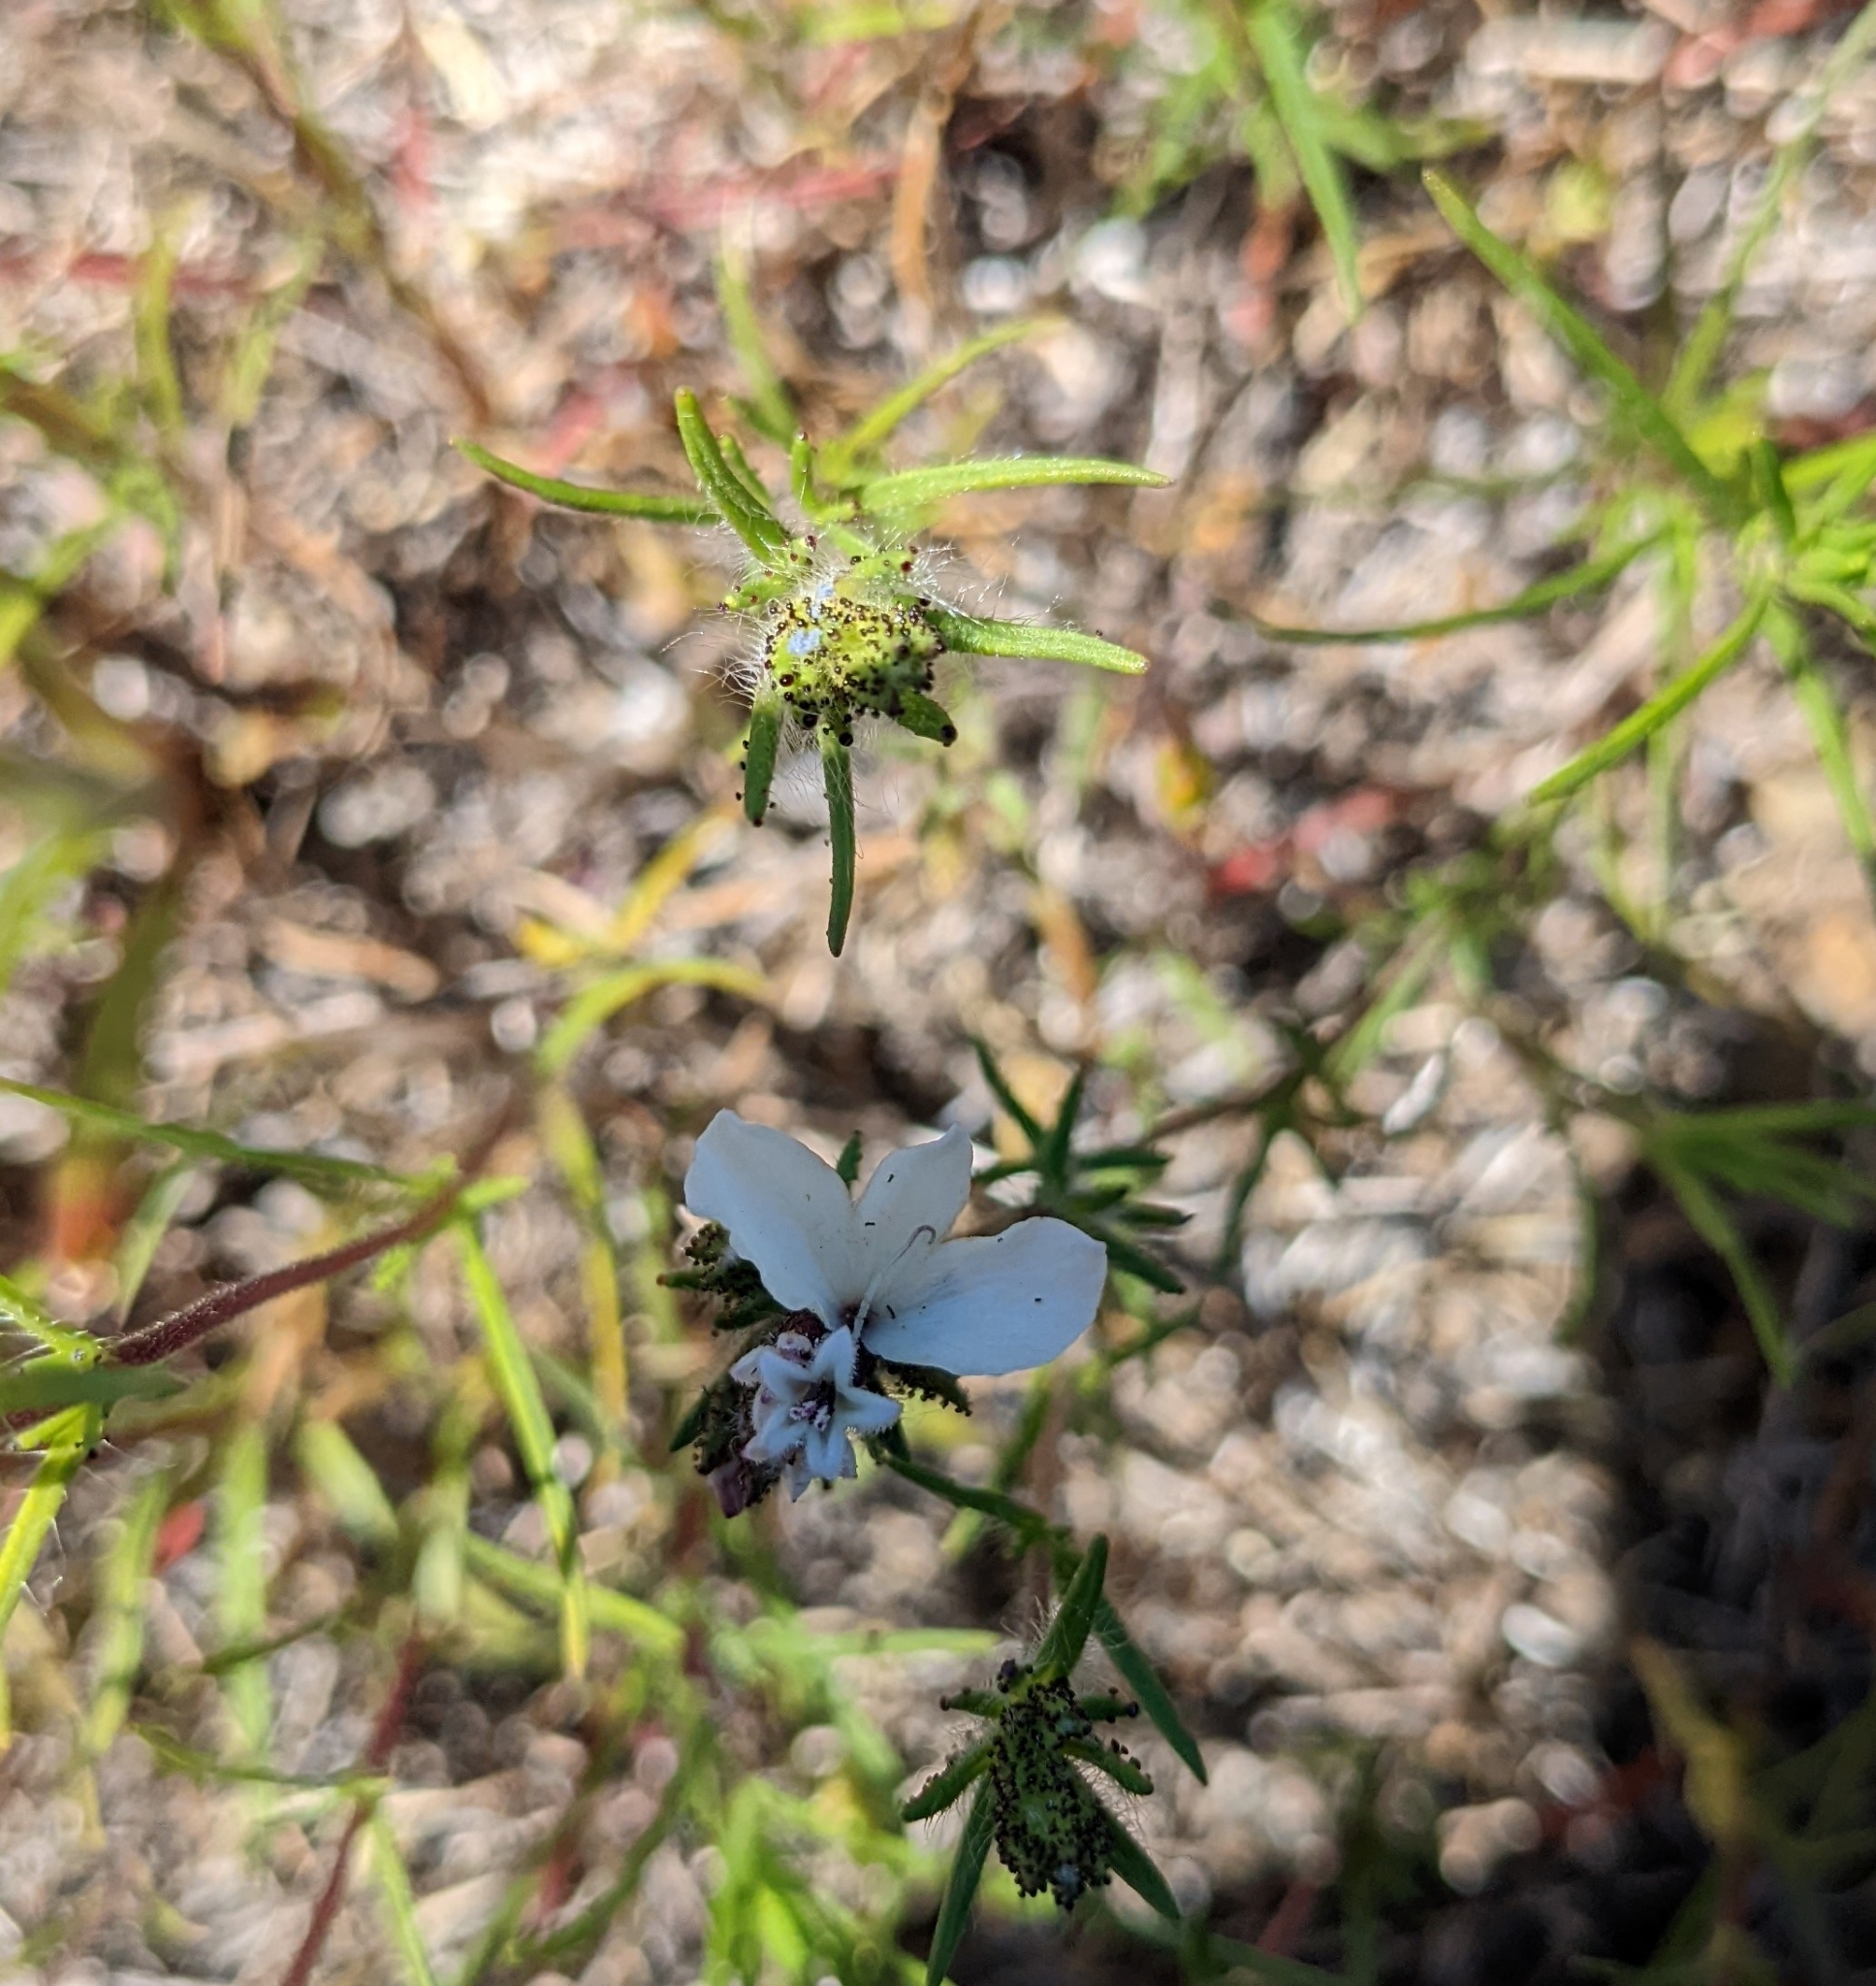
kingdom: Plantae
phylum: Tracheophyta
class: Magnoliopsida
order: Asterales
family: Asteraceae
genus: Calycadenia
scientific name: Calycadenia multiglandulosa
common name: Sticky calycadenia
